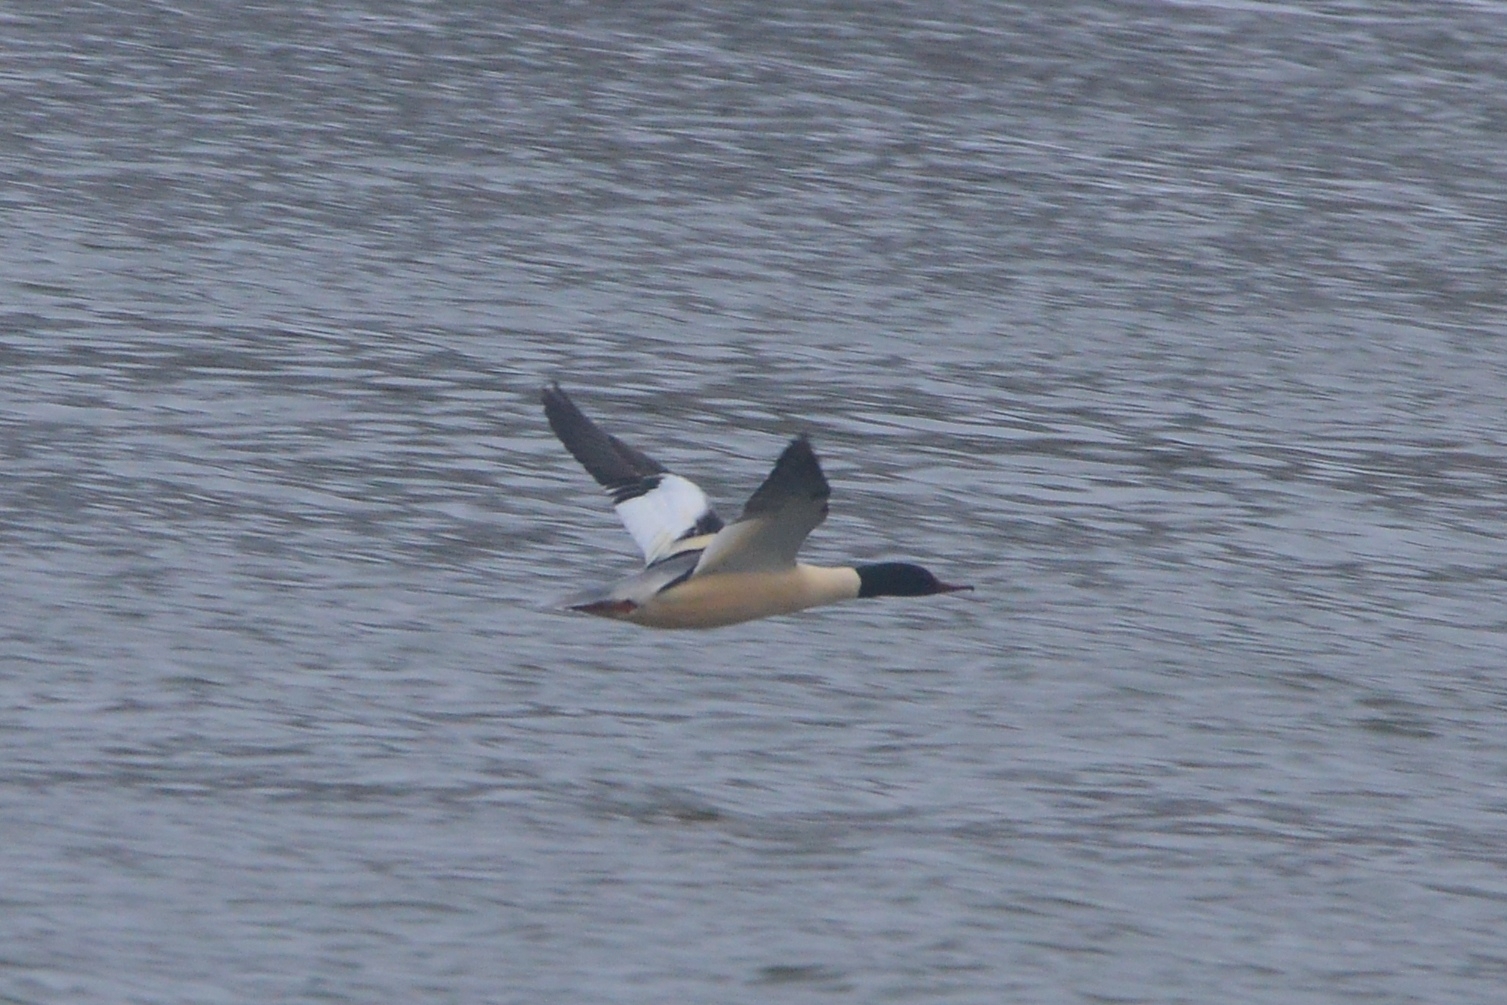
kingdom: Animalia
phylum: Chordata
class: Aves
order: Anseriformes
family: Anatidae
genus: Mergus
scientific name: Mergus merganser
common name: Common merganser
